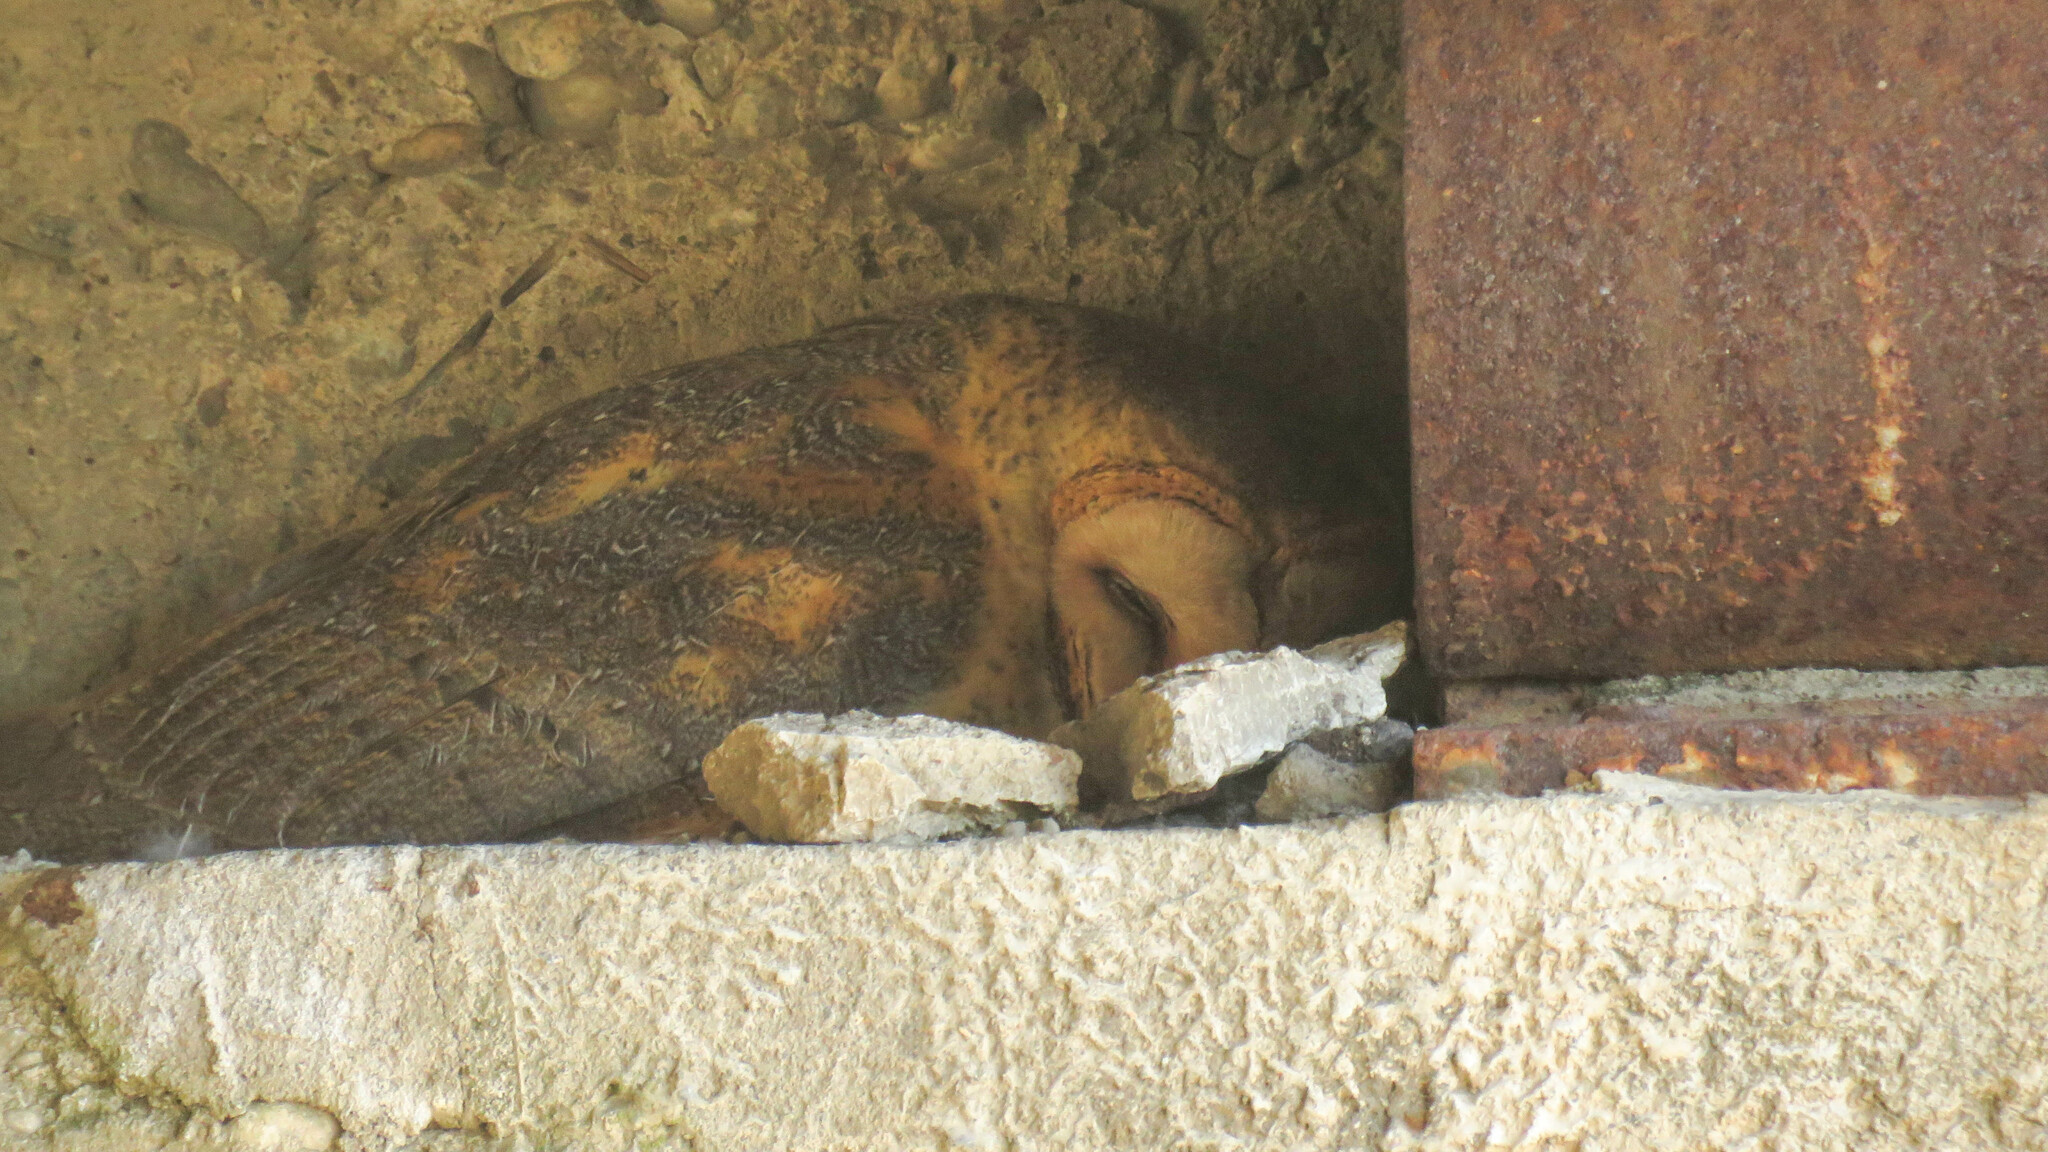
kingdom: Animalia
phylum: Chordata
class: Aves
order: Strigiformes
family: Tytonidae
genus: Tyto
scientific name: Tyto alba
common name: Barn owl
